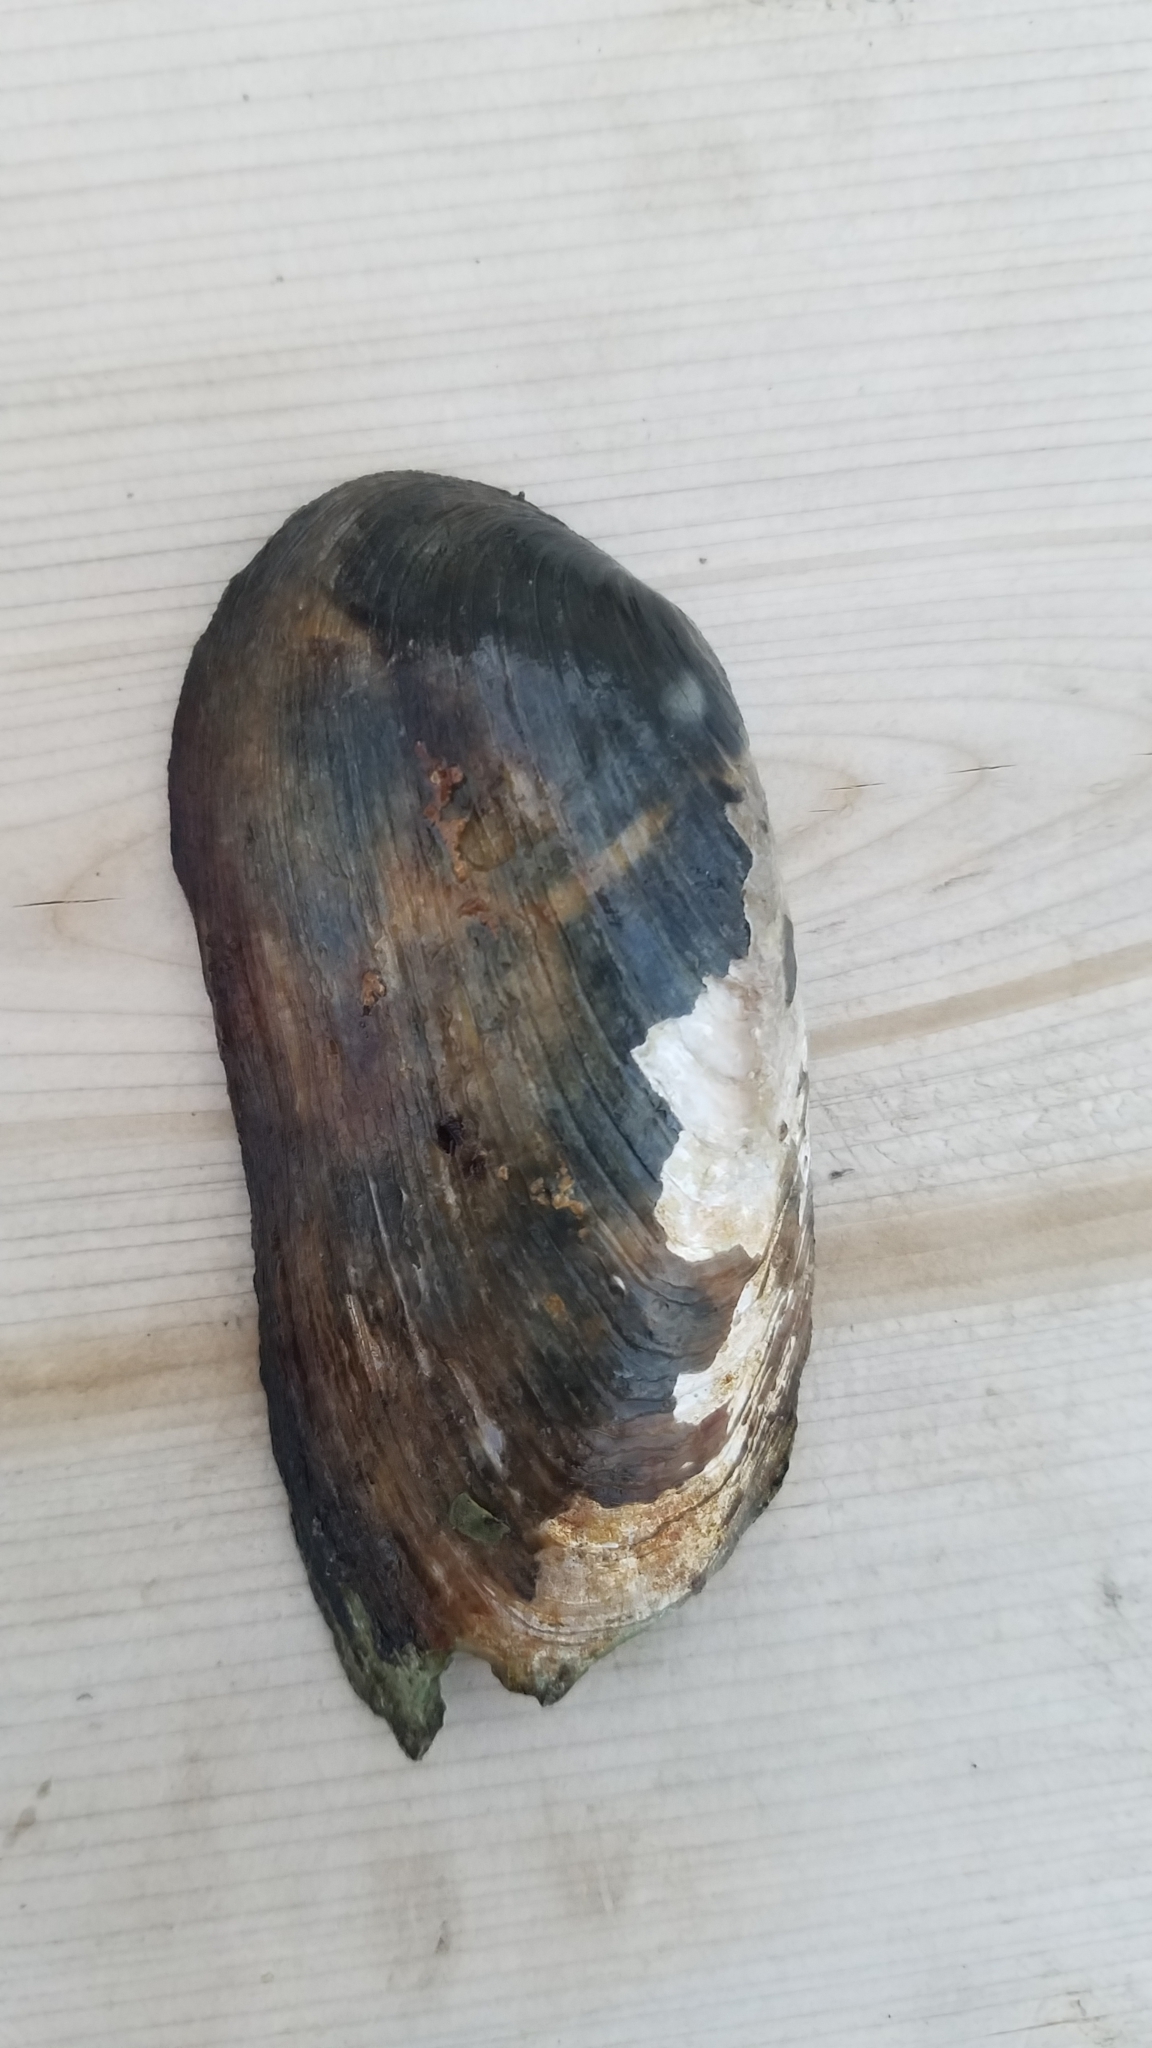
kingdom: Animalia
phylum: Mollusca
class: Bivalvia
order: Unionida
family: Unionidae
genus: Eurynia
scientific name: Eurynia dilatata
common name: Spike
